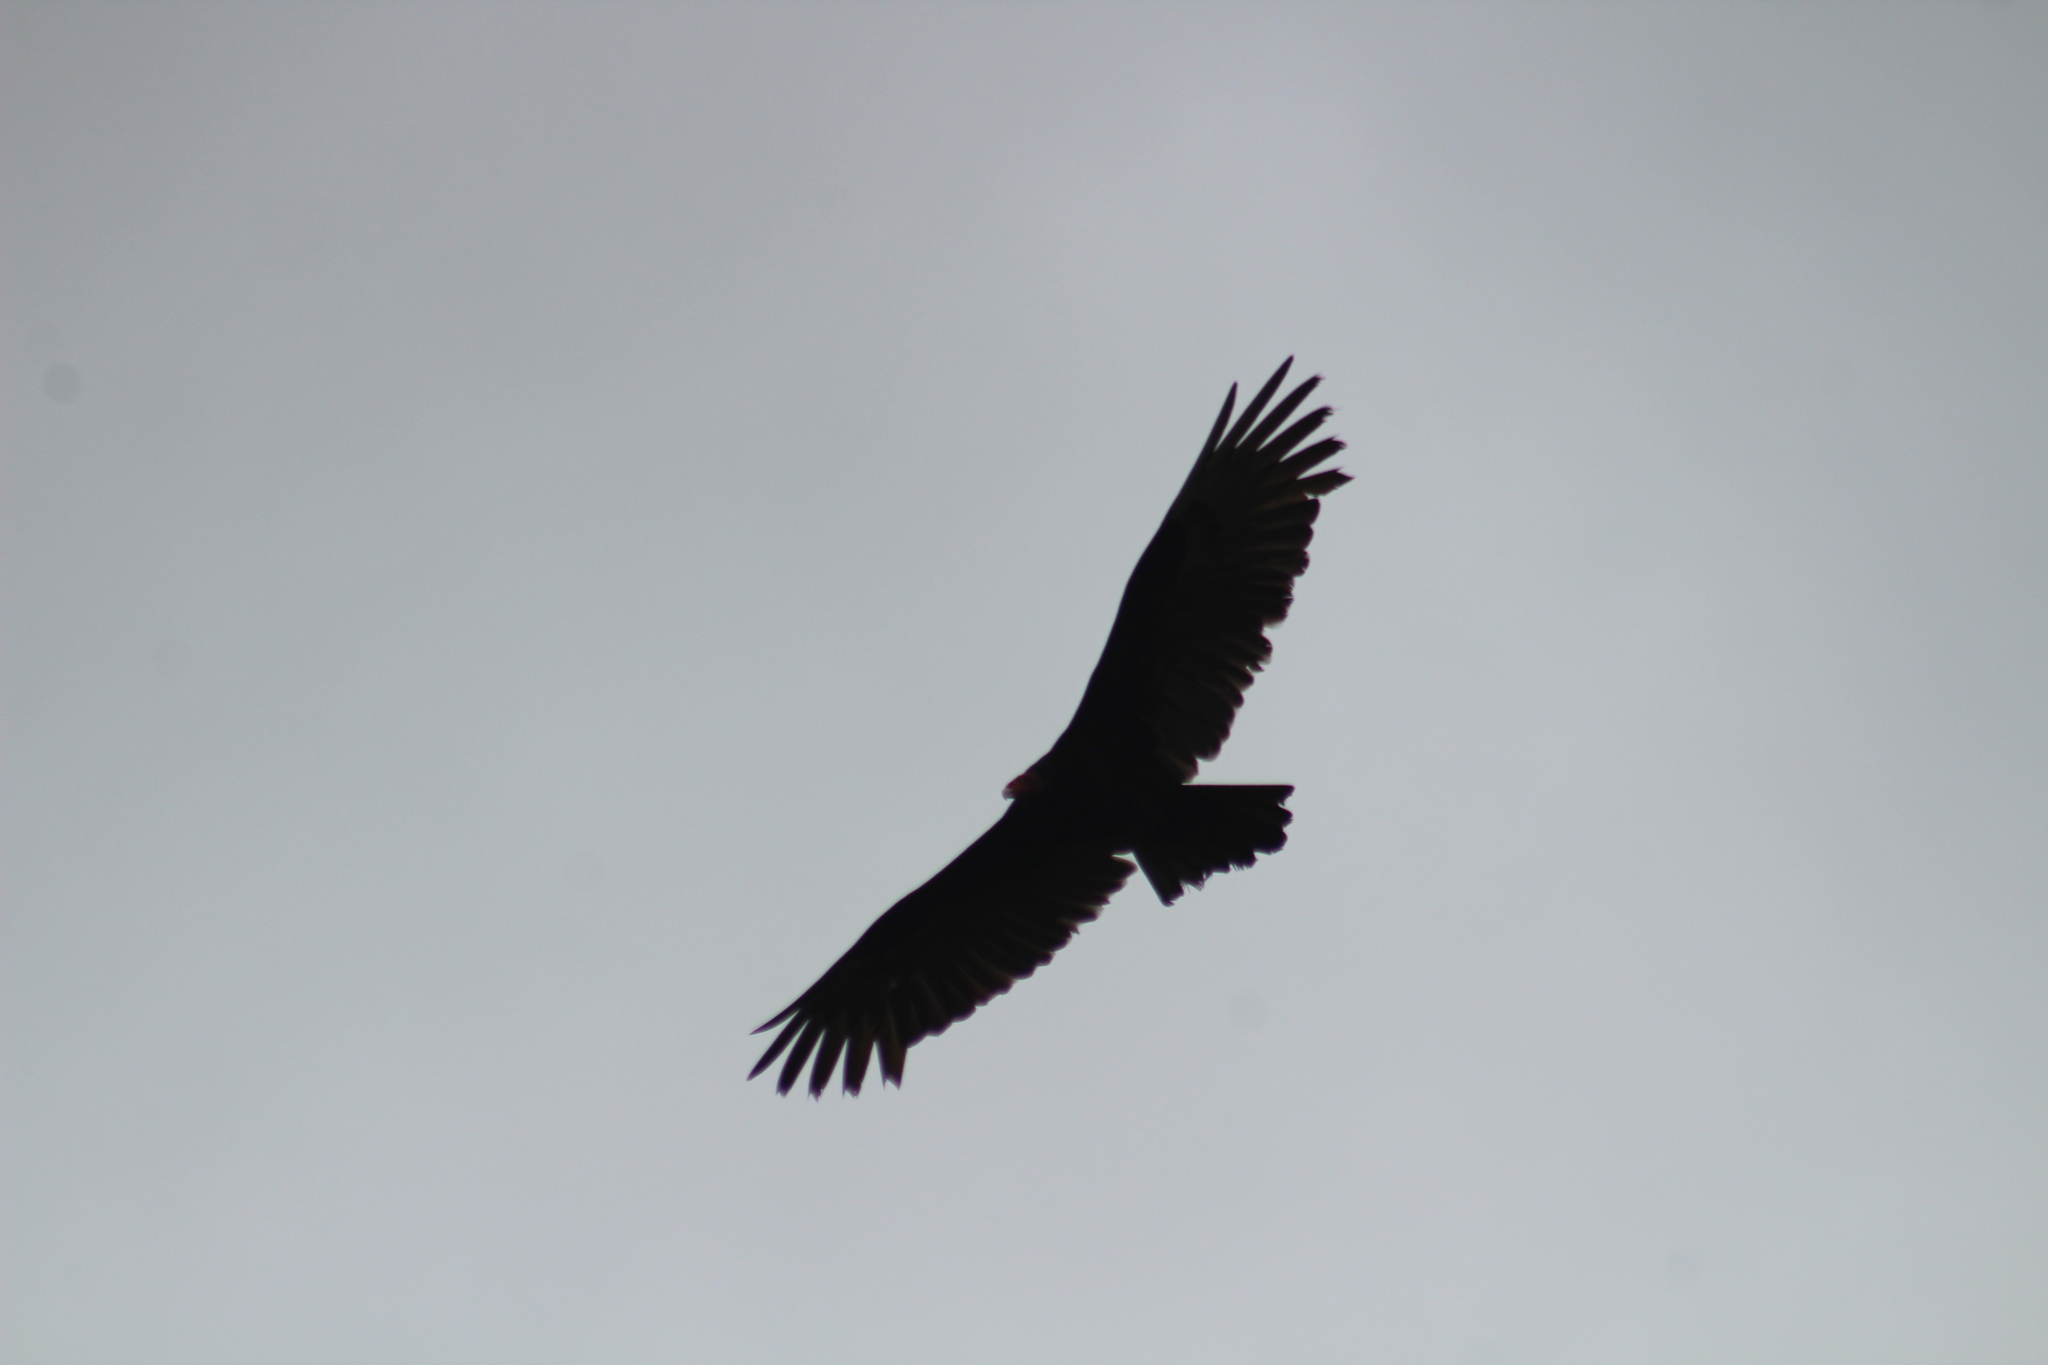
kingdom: Animalia
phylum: Chordata
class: Aves
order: Accipitriformes
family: Cathartidae
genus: Cathartes
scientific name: Cathartes aura
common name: Turkey vulture
